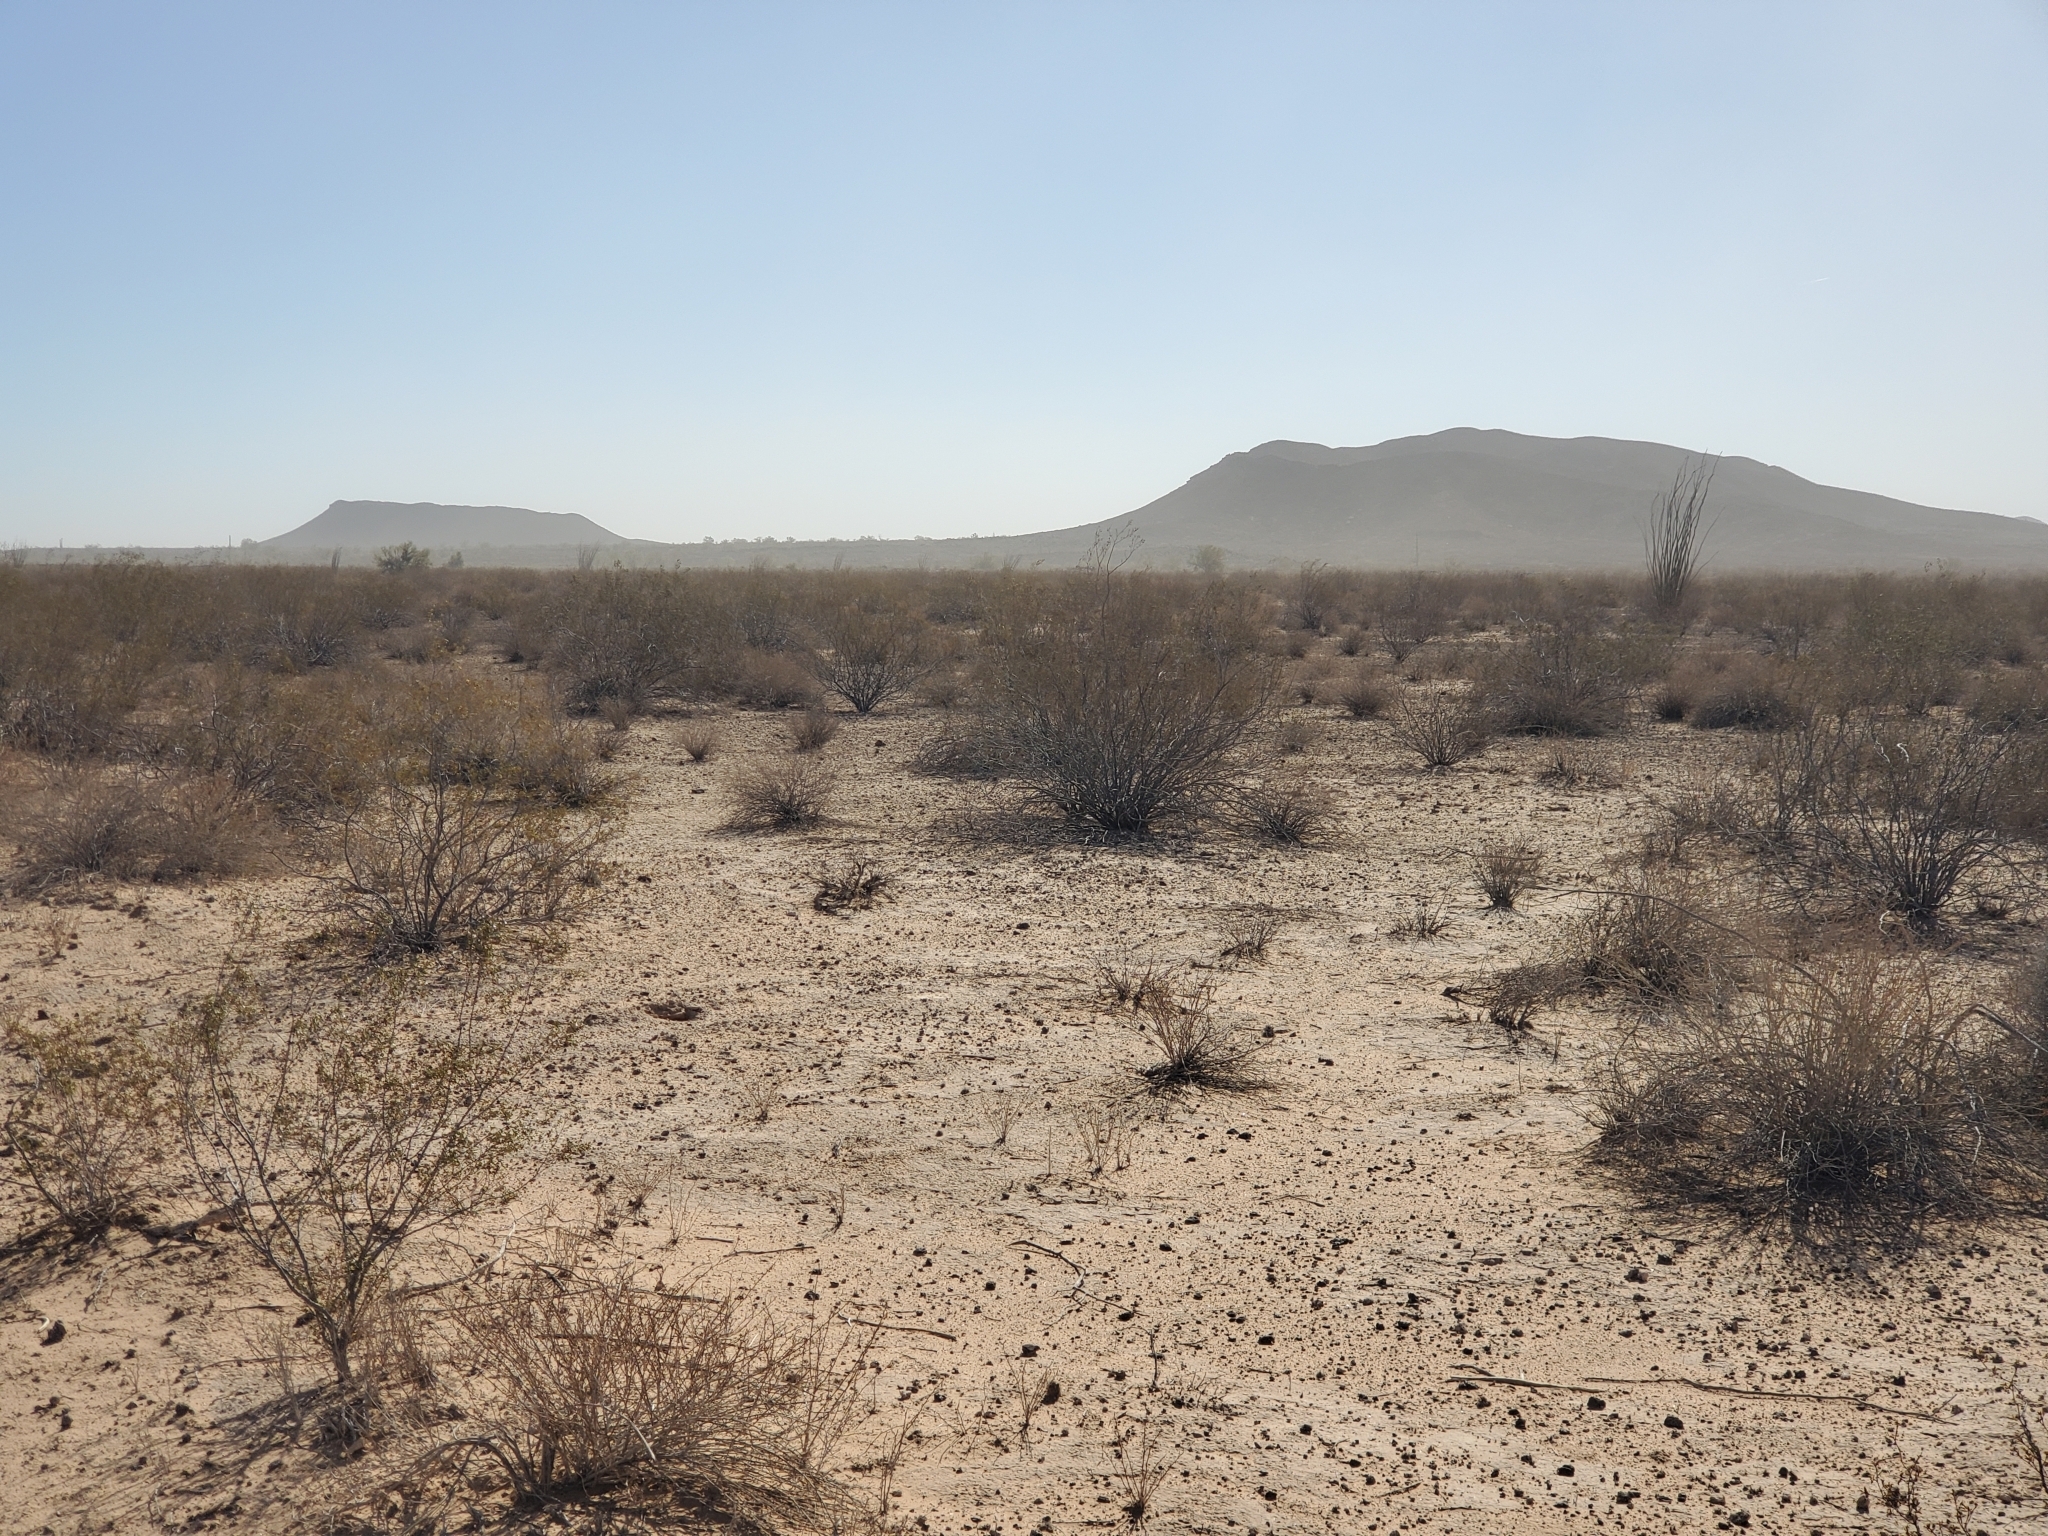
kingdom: Plantae
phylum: Tracheophyta
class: Magnoliopsida
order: Ericales
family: Fouquieriaceae
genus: Fouquieria
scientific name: Fouquieria splendens
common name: Vine-cactus
